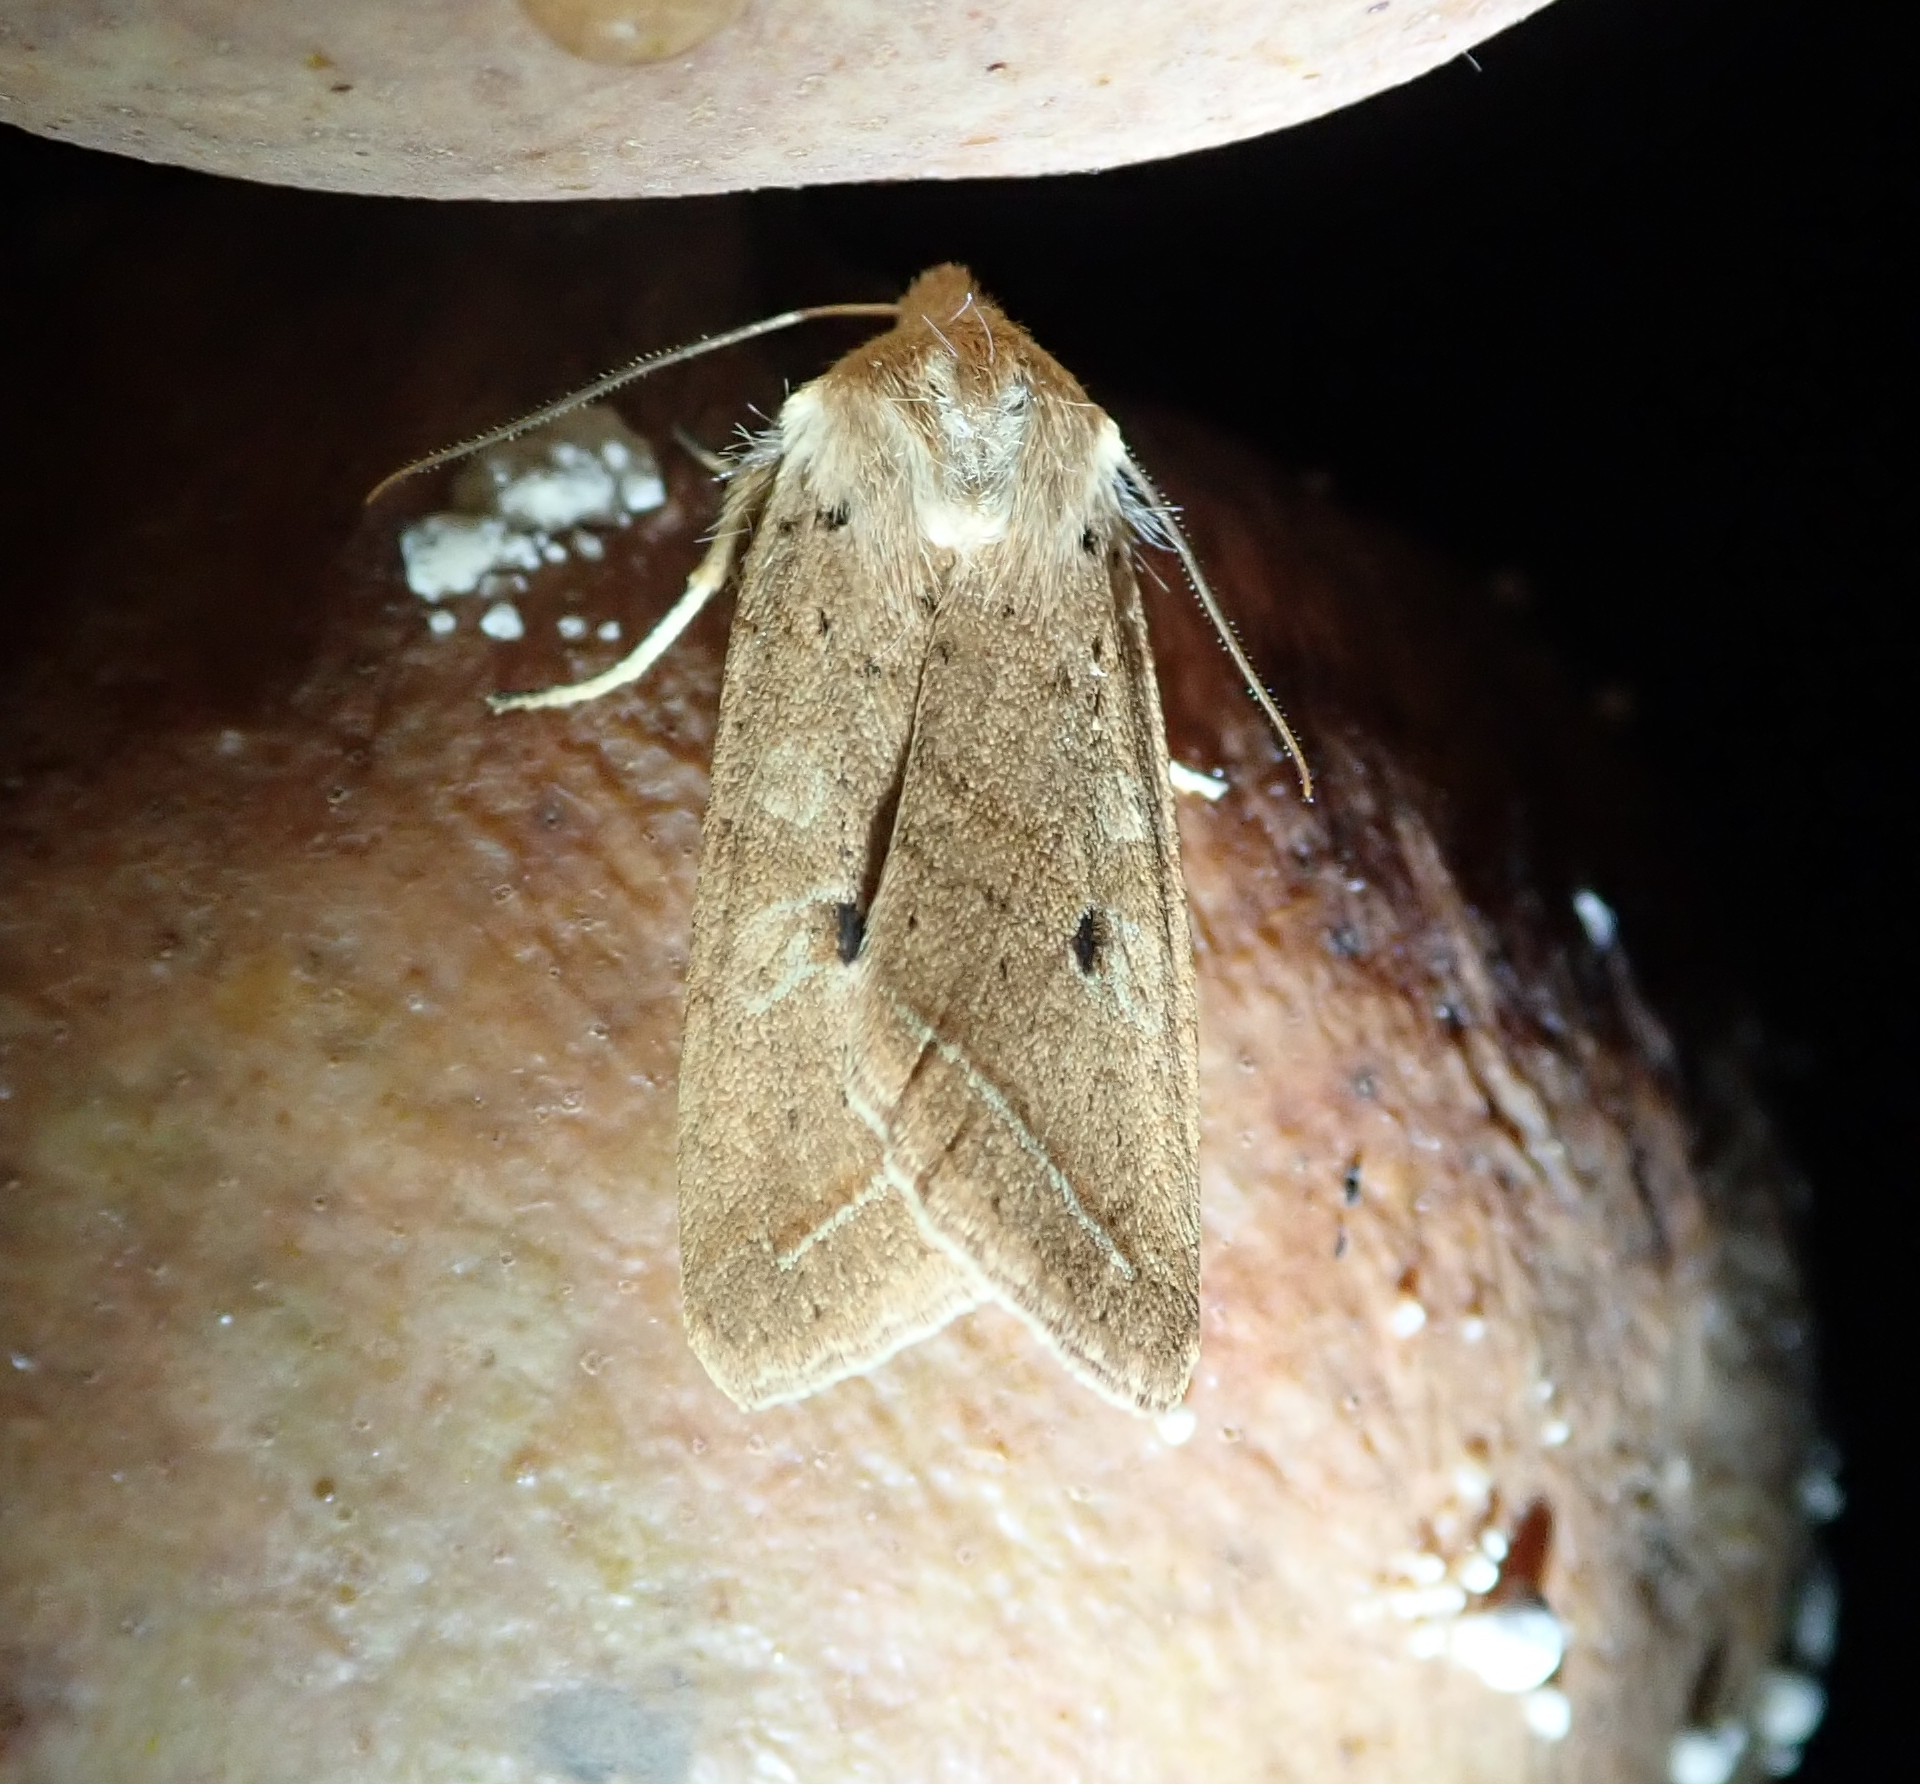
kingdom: Animalia
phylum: Arthropoda
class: Insecta
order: Lepidoptera
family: Noctuidae
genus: Agrochola
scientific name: Agrochola macilenta
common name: Yellow-line quaker
